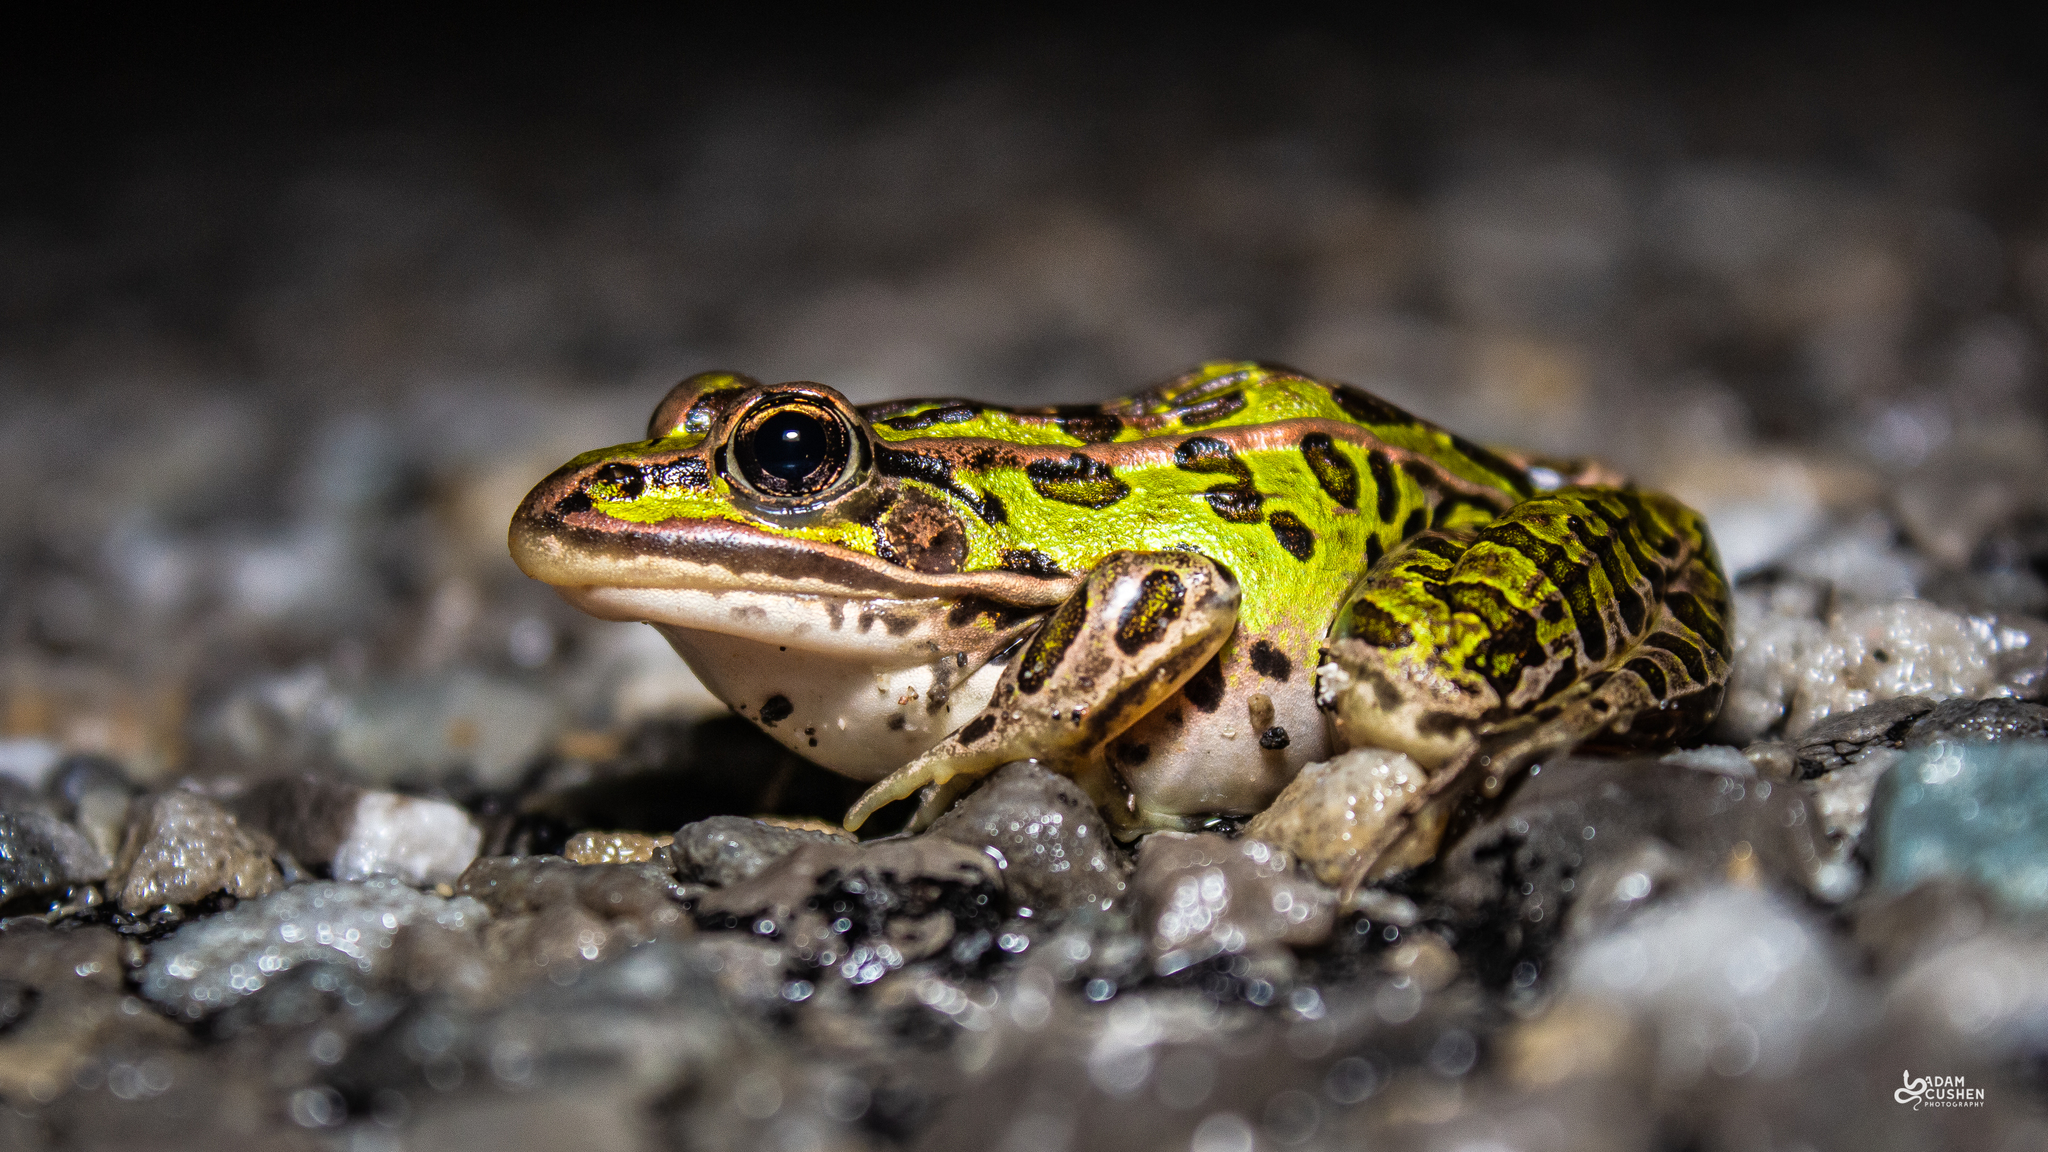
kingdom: Animalia
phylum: Chordata
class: Amphibia
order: Anura
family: Ranidae
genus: Lithobates
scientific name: Lithobates pipiens
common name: Northern leopard frog
